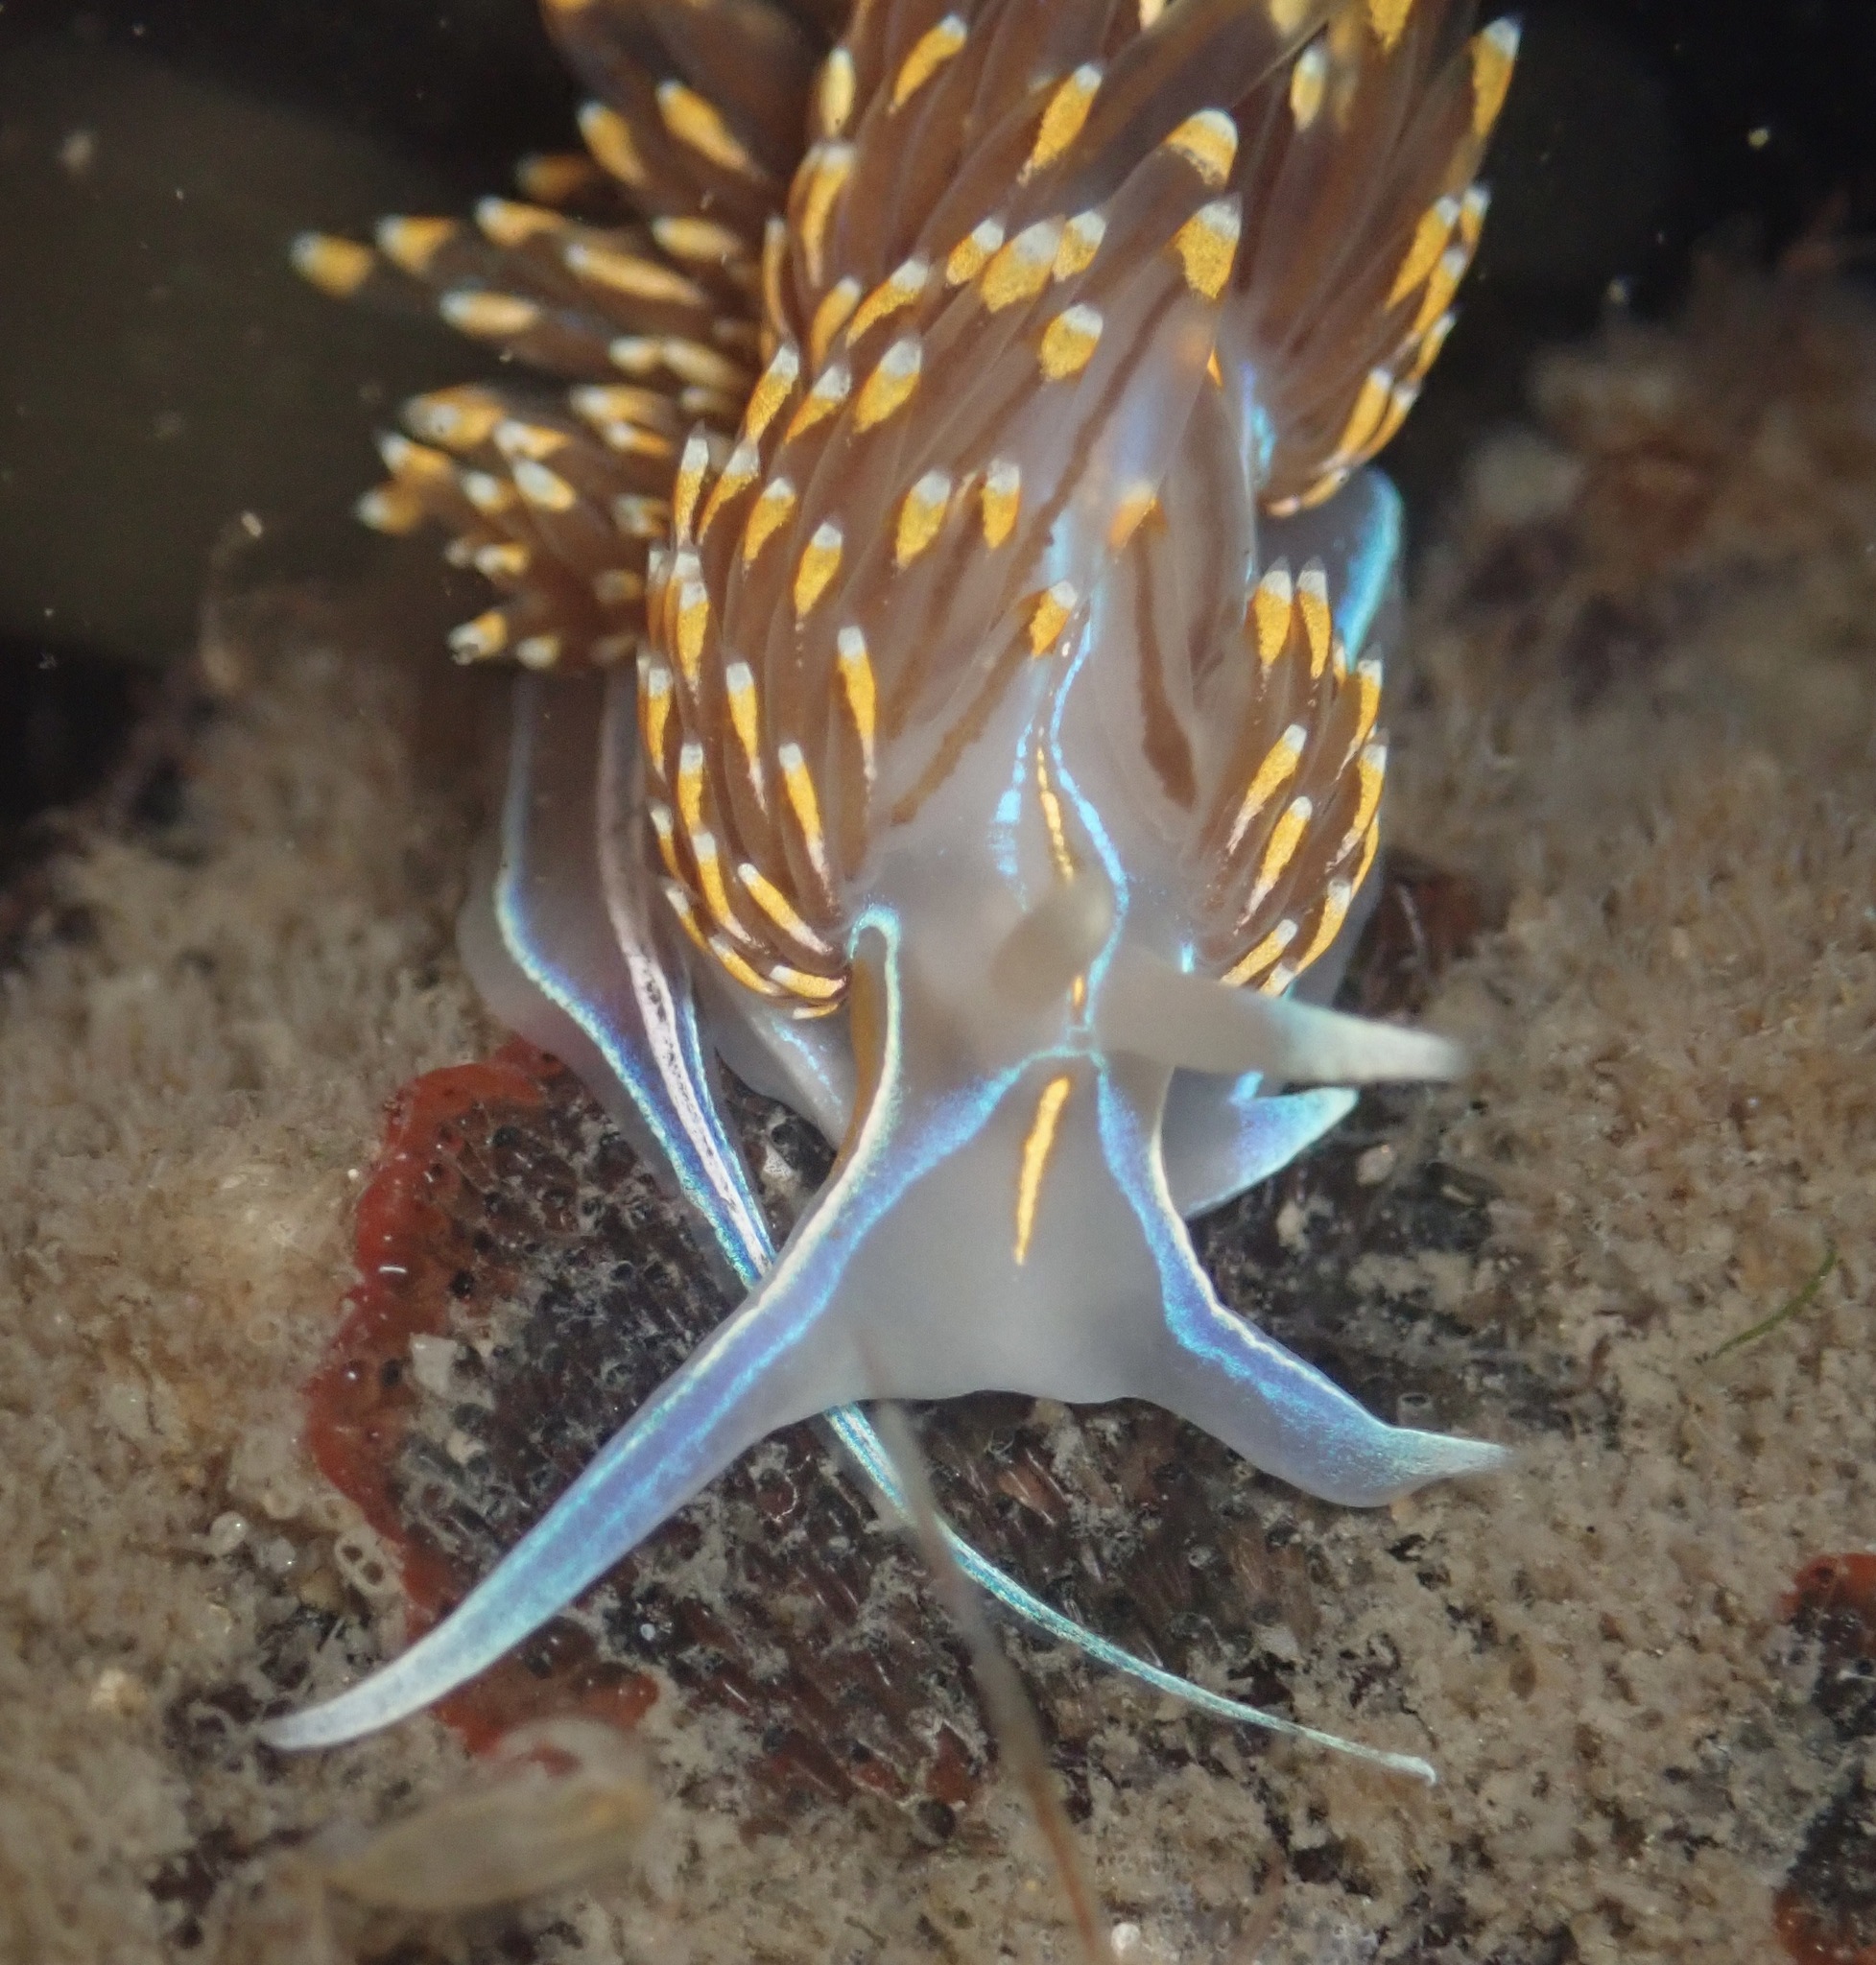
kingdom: Animalia
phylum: Mollusca
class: Gastropoda
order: Nudibranchia
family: Myrrhinidae
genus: Hermissenda
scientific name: Hermissenda opalescens
